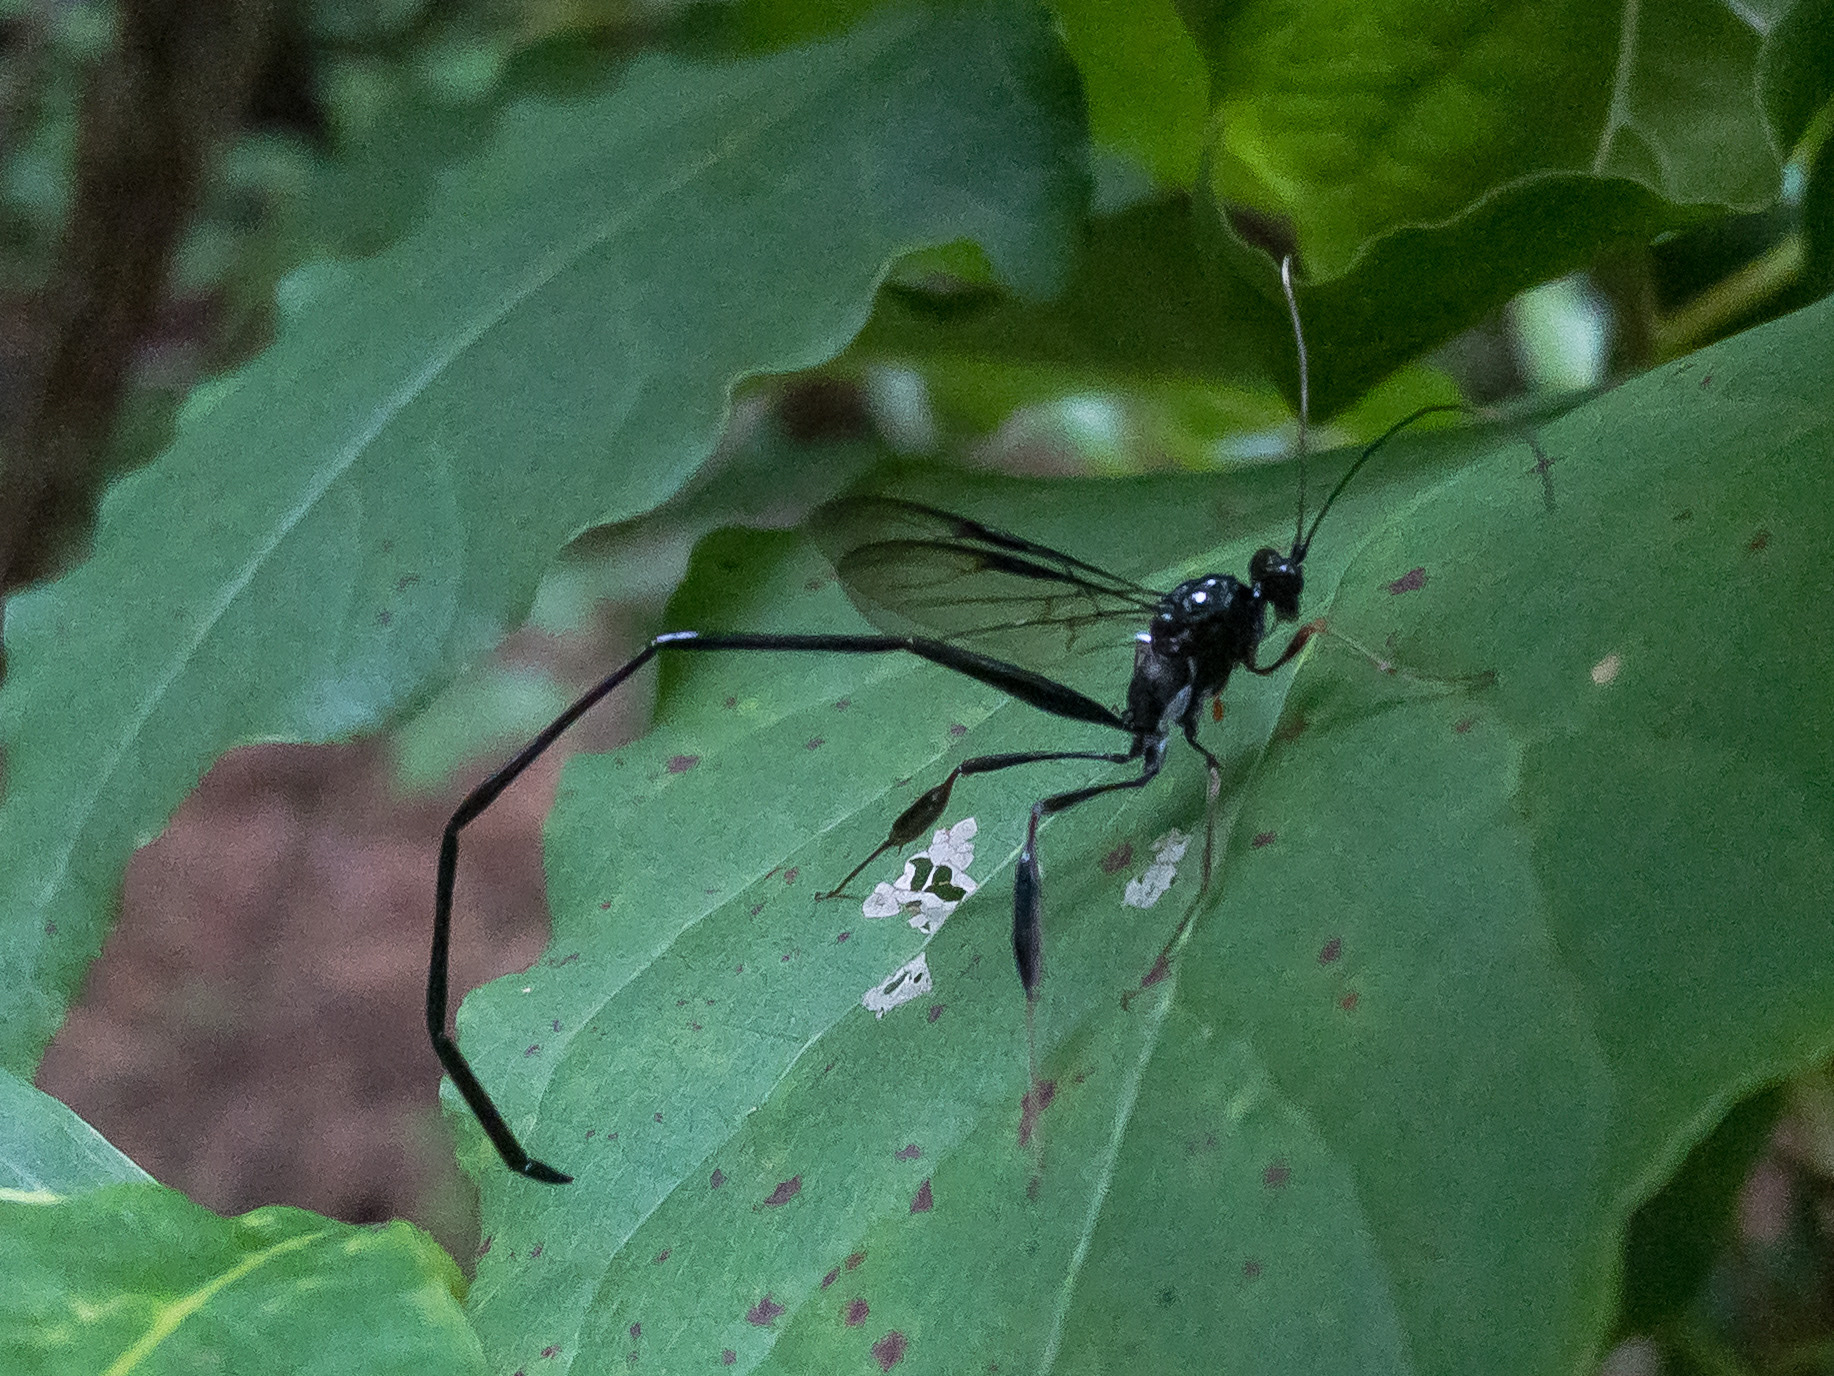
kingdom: Animalia
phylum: Arthropoda
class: Insecta
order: Hymenoptera
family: Pelecinidae
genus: Pelecinus
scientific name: Pelecinus polyturator
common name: American pelecinid wasp
